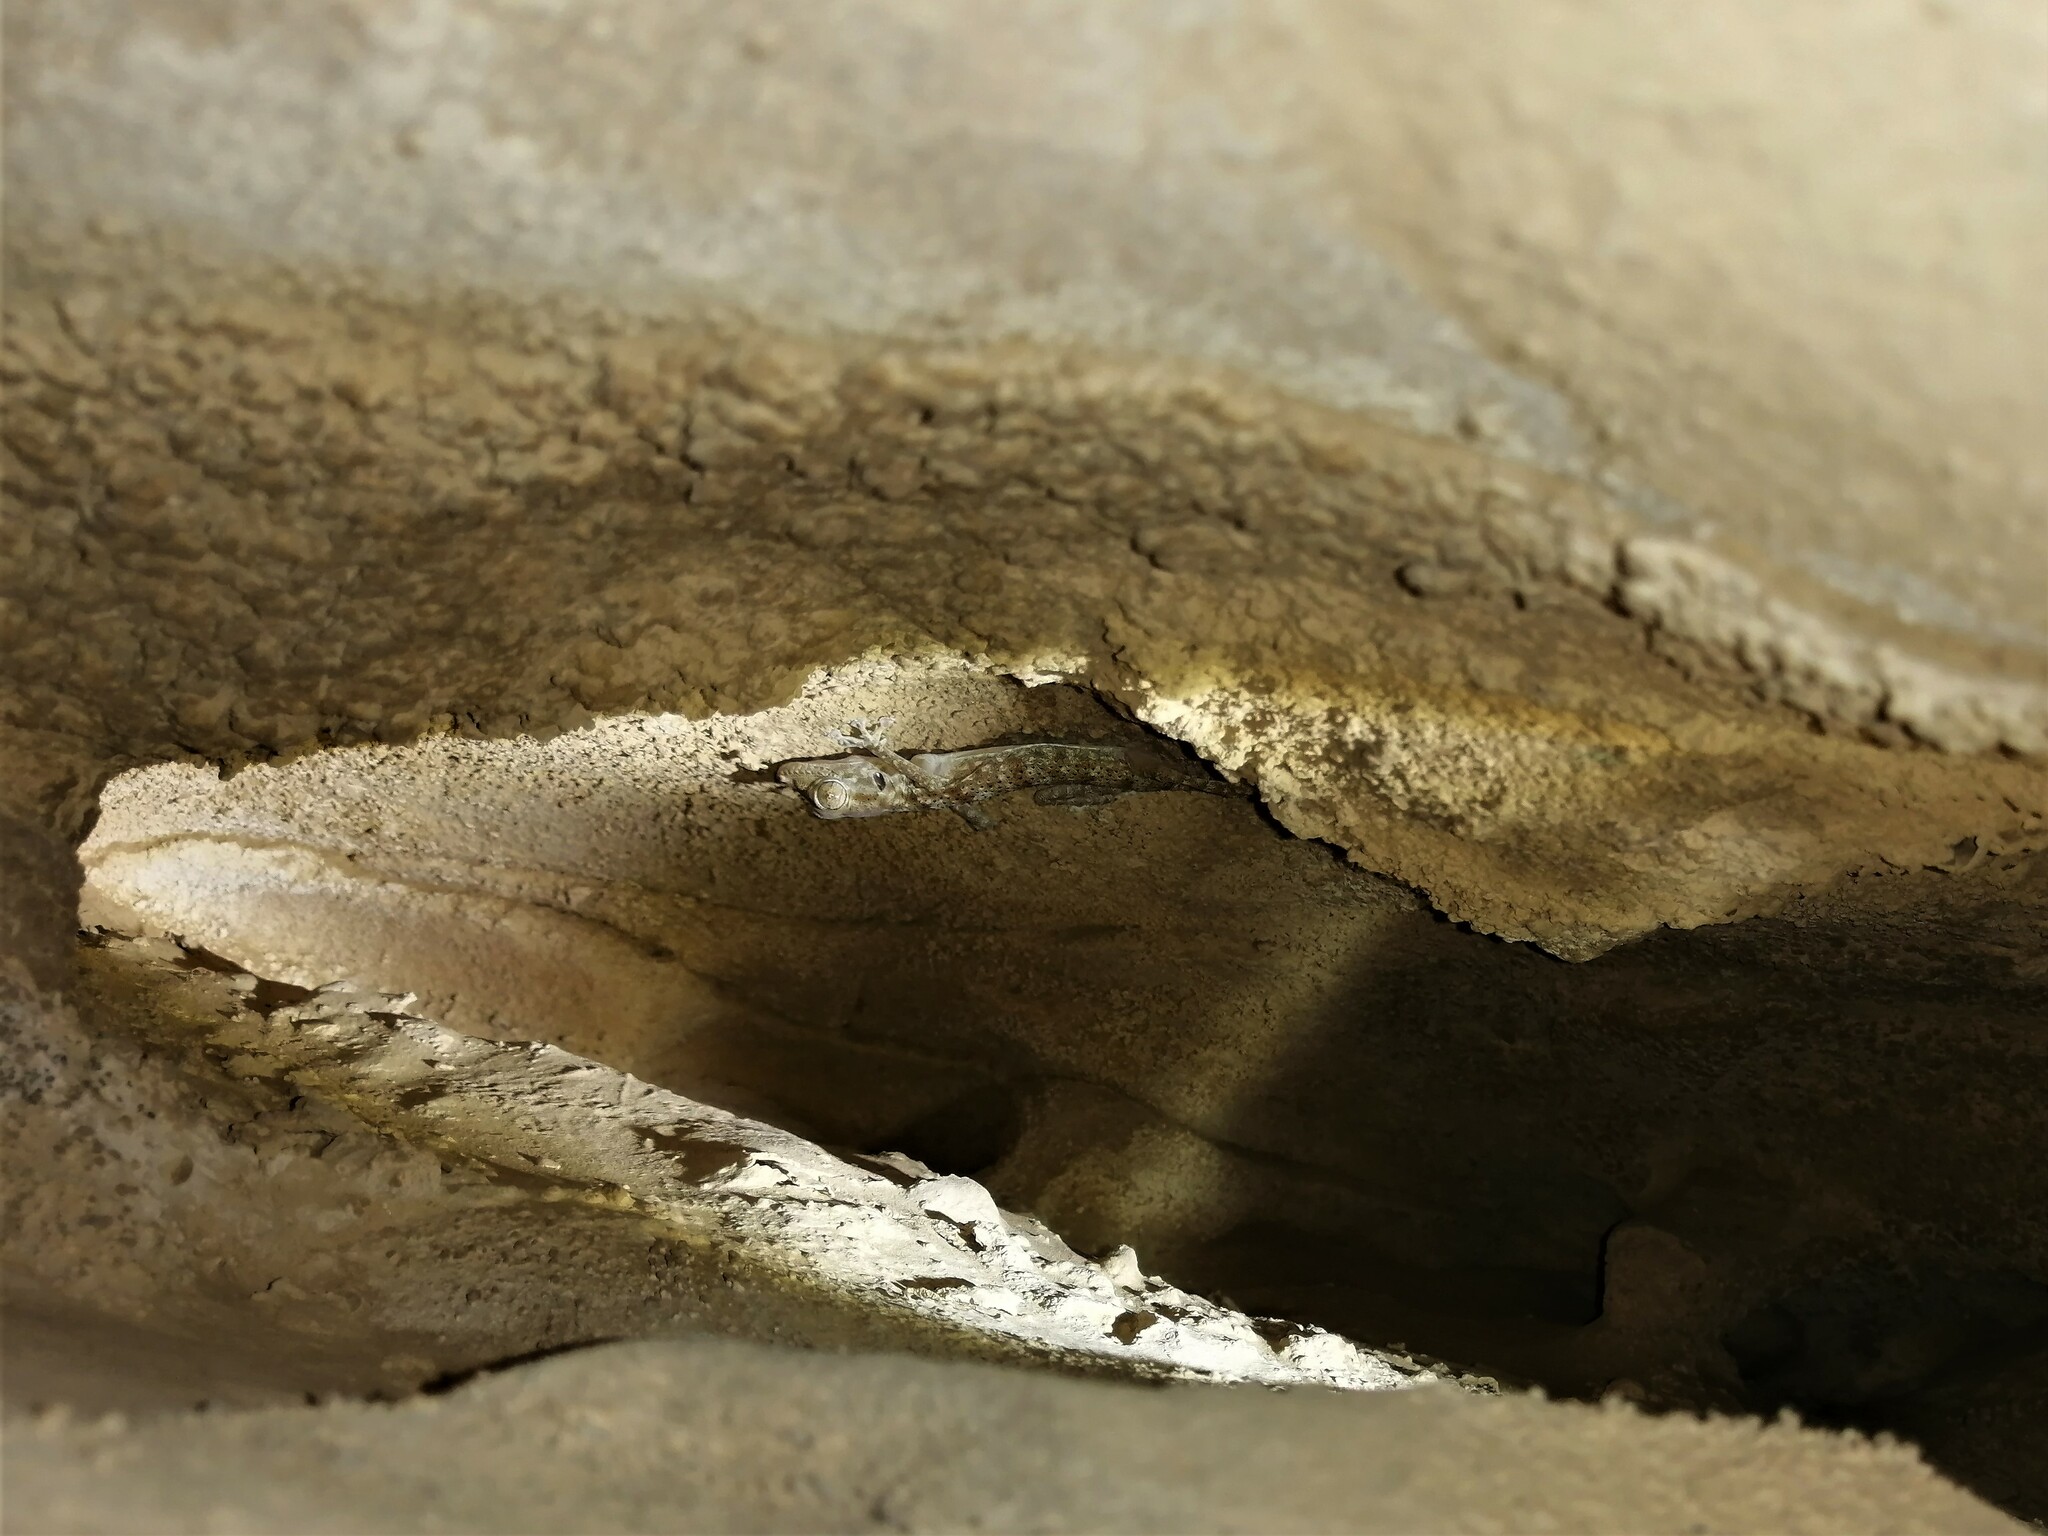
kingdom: Animalia
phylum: Chordata
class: Squamata
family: Phyllodactylidae
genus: Ptyodactylus
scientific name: Ptyodactylus hasselquistii
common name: Hasselquist’s fan-footed gecko
